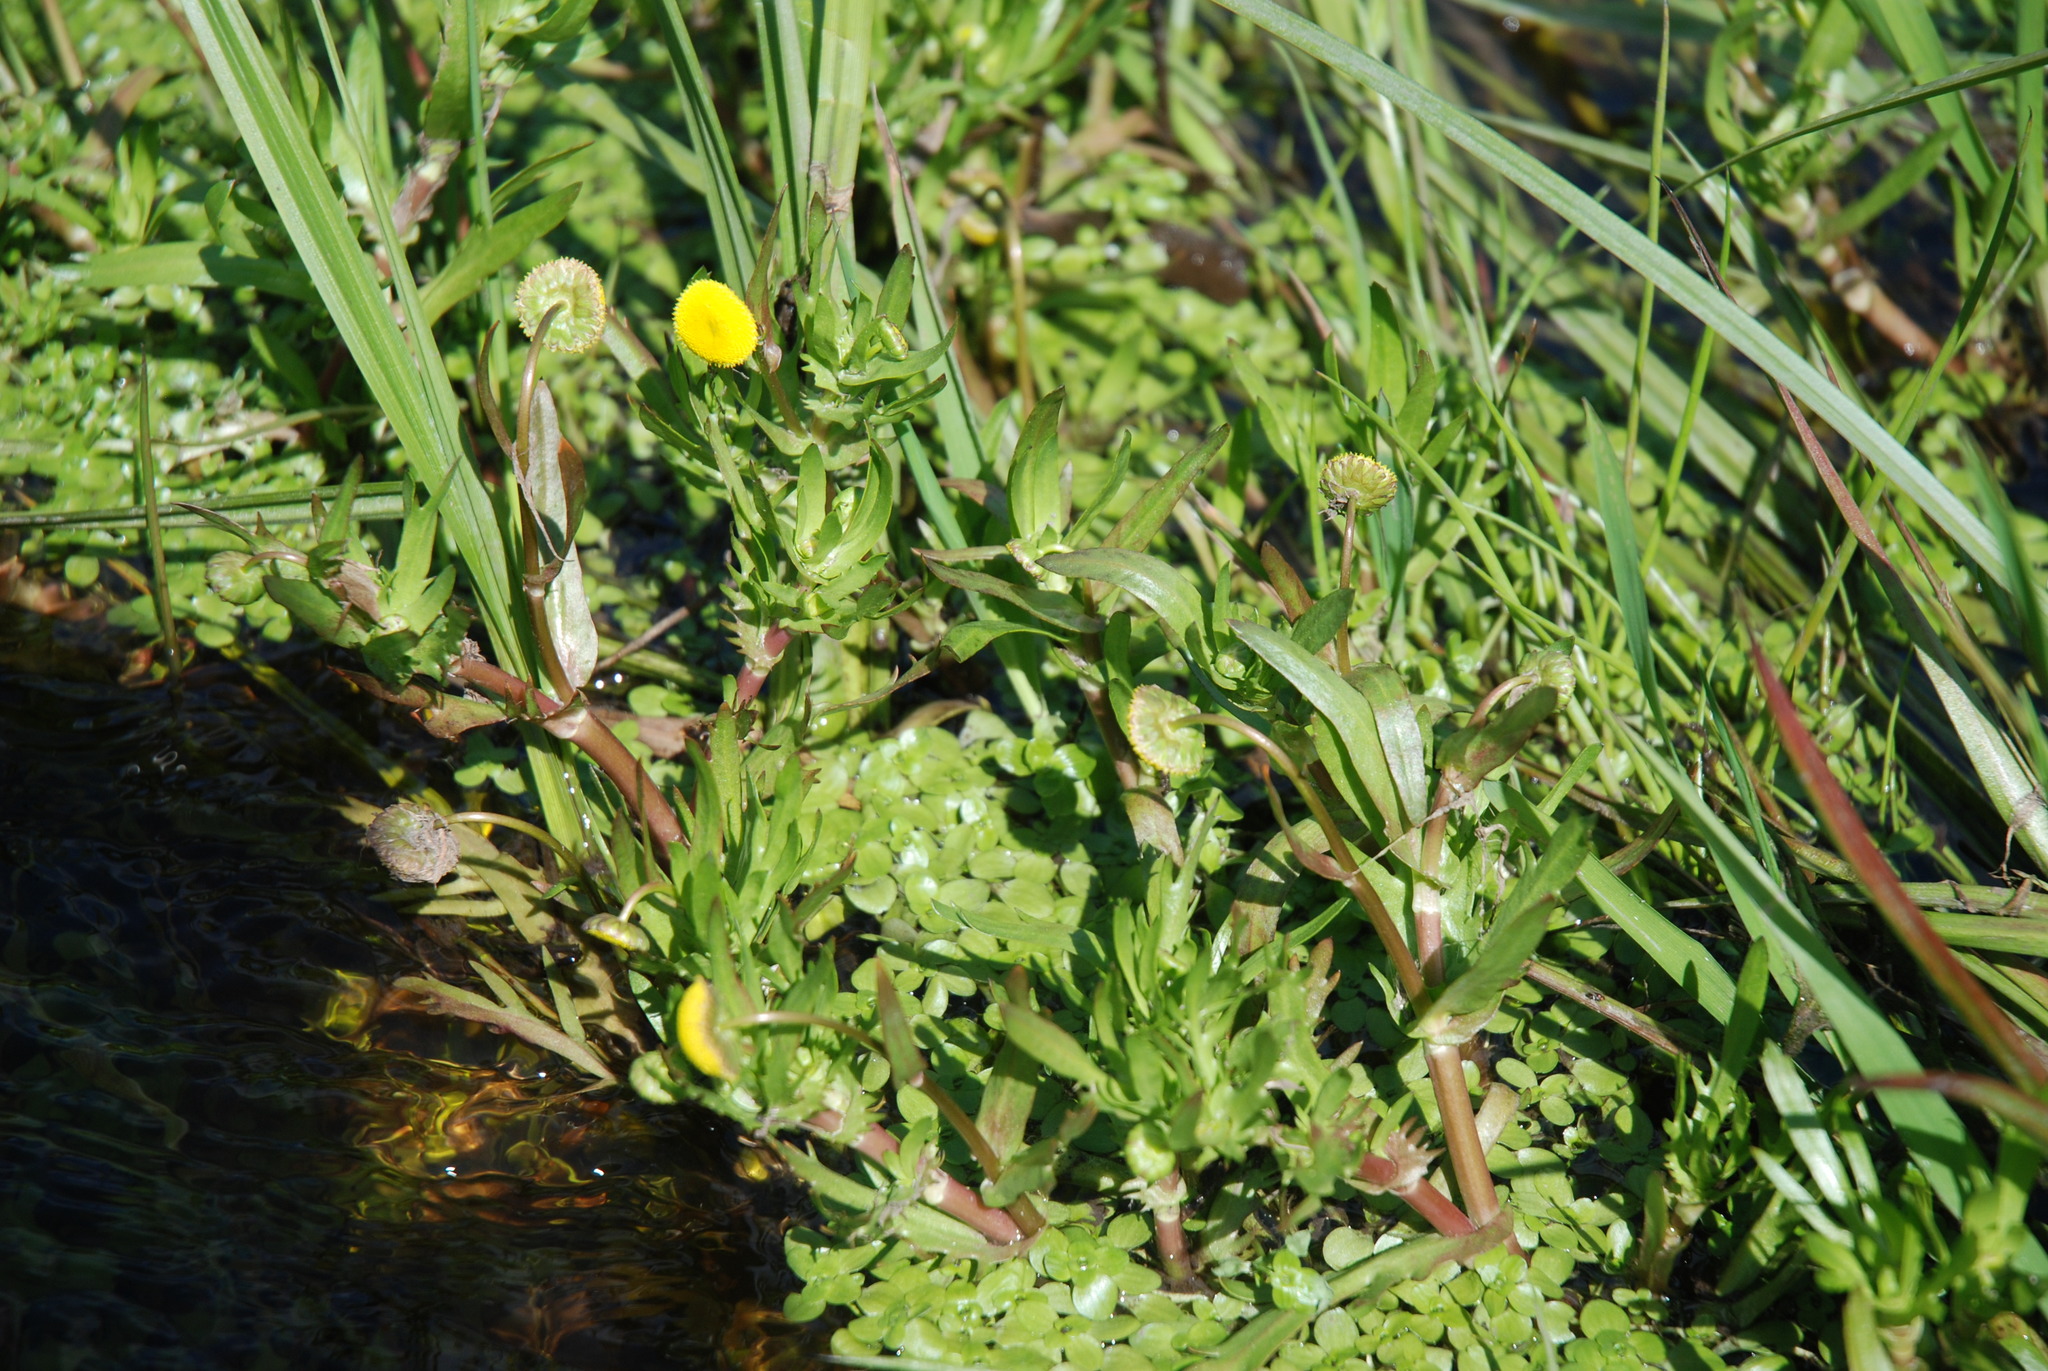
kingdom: Plantae
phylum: Tracheophyta
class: Magnoliopsida
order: Asterales
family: Asteraceae
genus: Cotula
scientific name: Cotula coronopifolia
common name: Buttonweed
